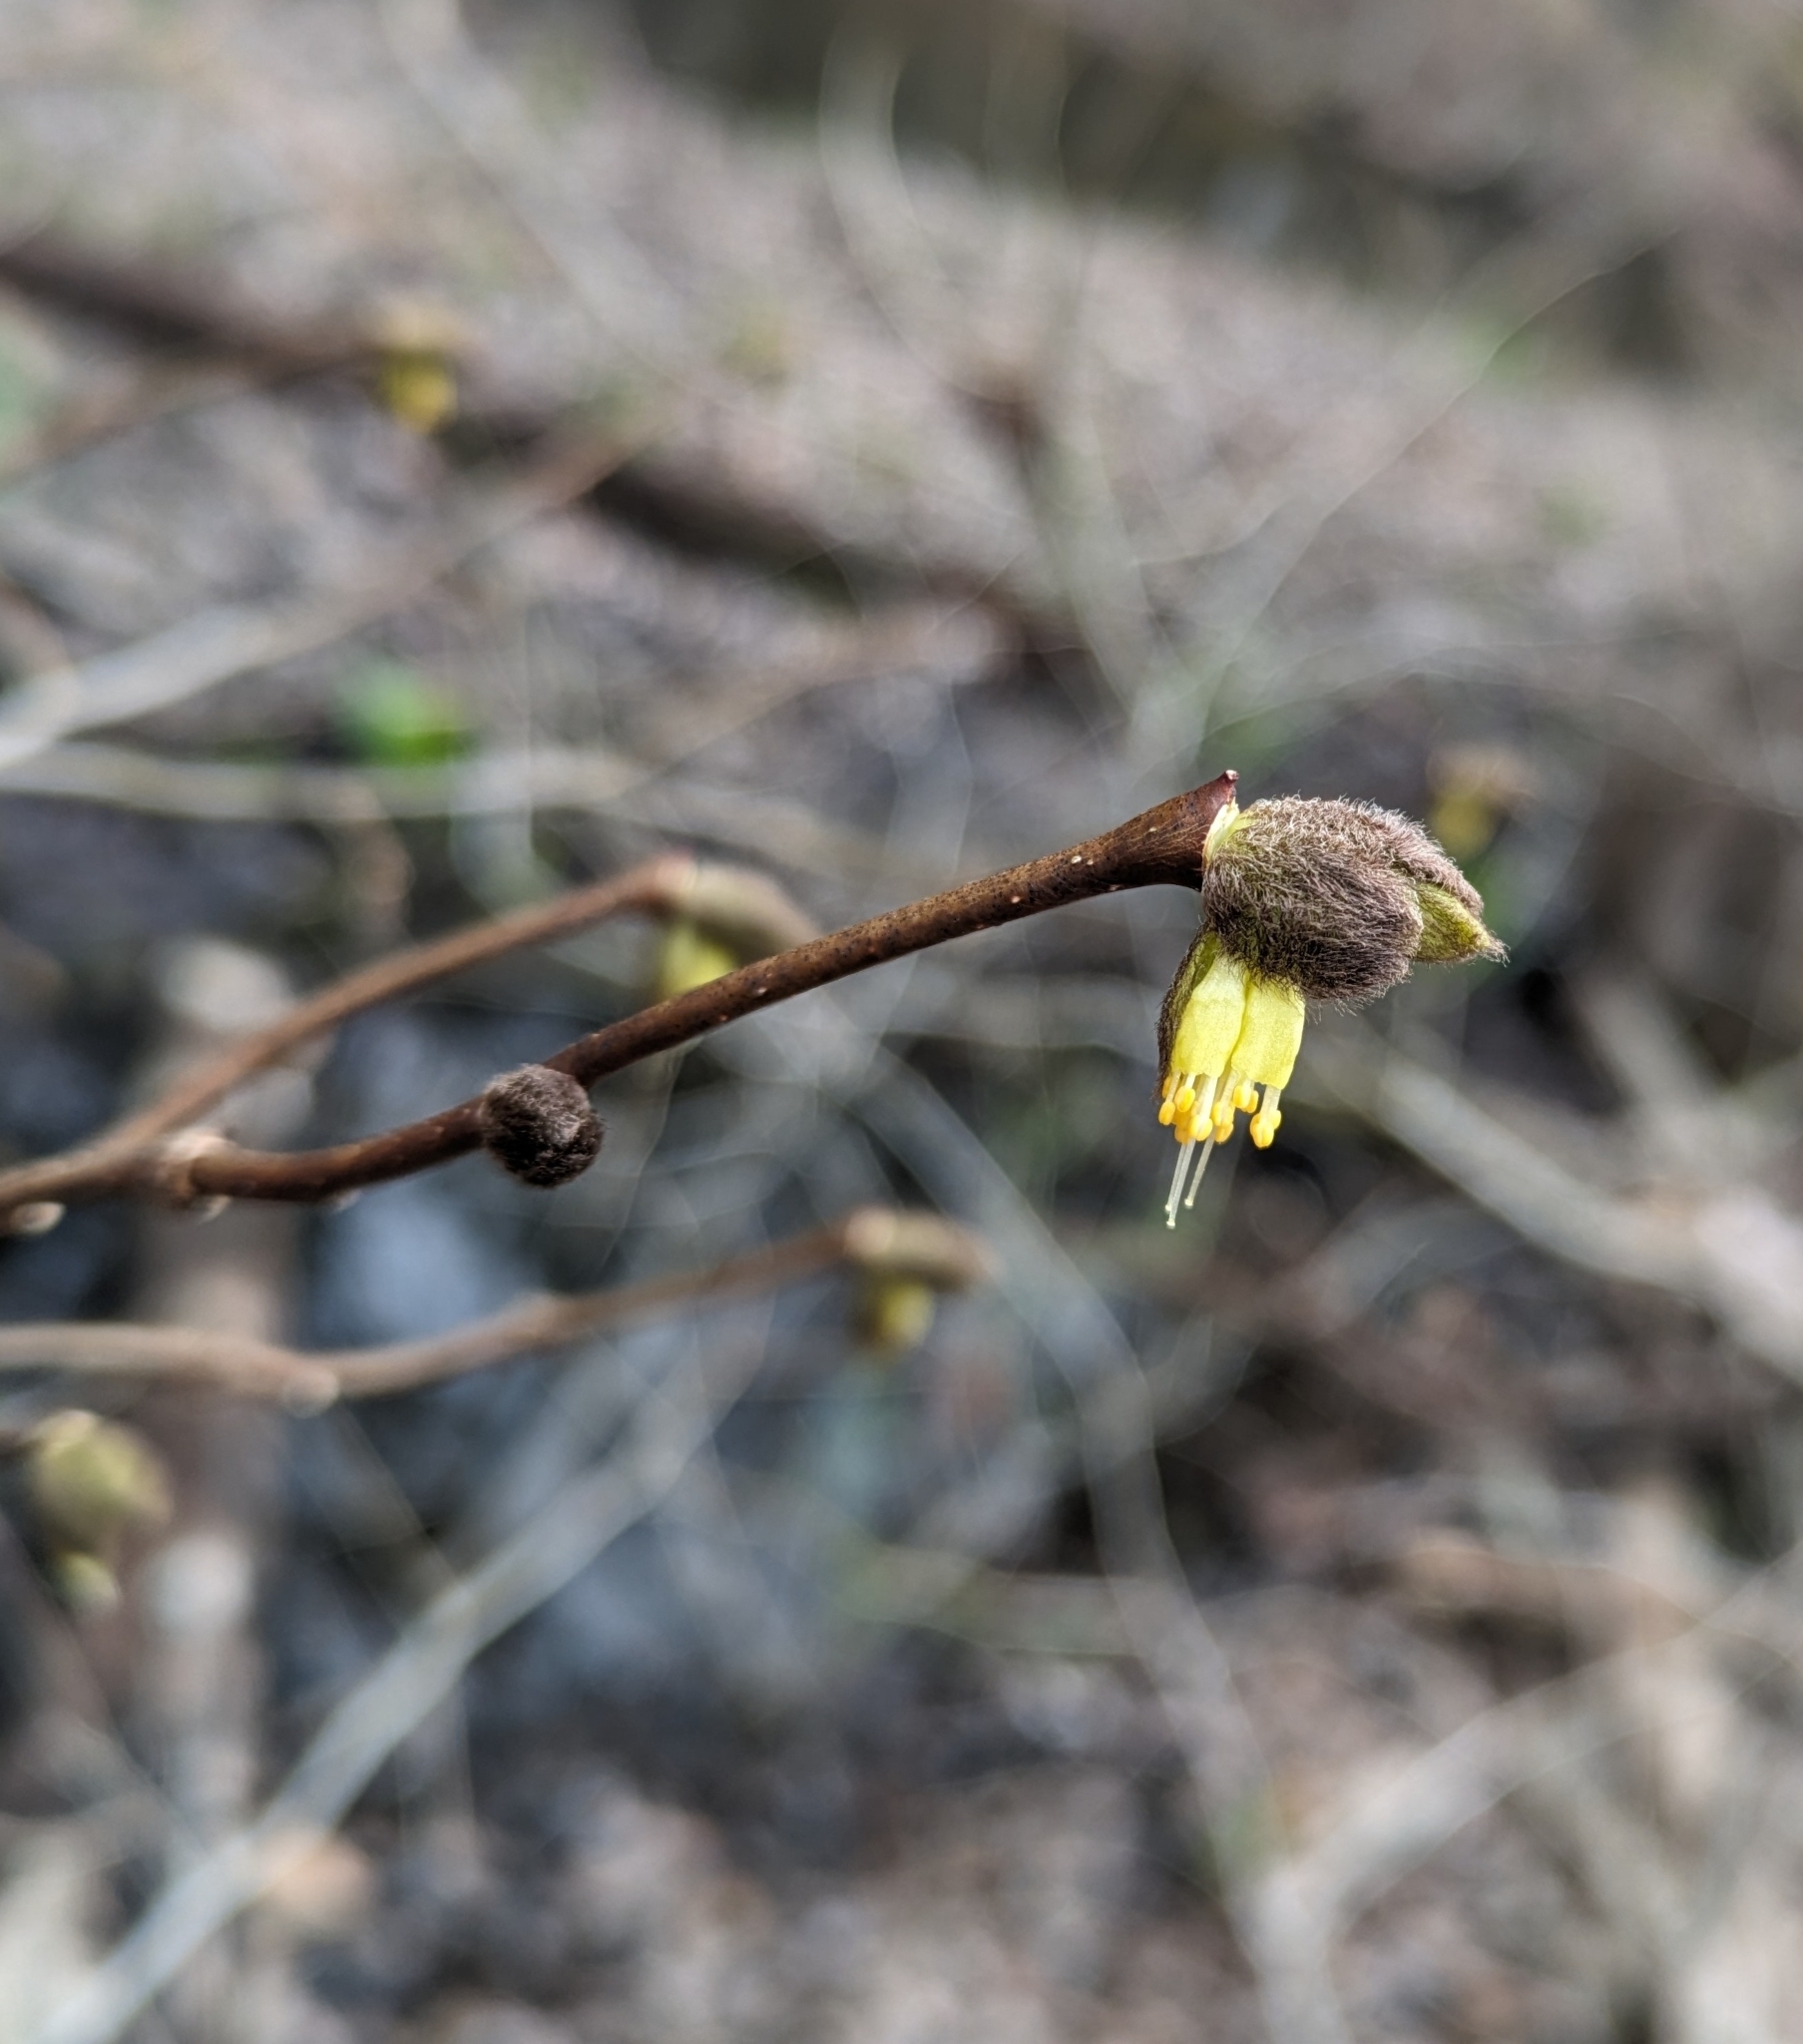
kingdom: Plantae
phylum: Tracheophyta
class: Magnoliopsida
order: Malvales
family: Thymelaeaceae
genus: Dirca
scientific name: Dirca palustris
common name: Leatherwood
